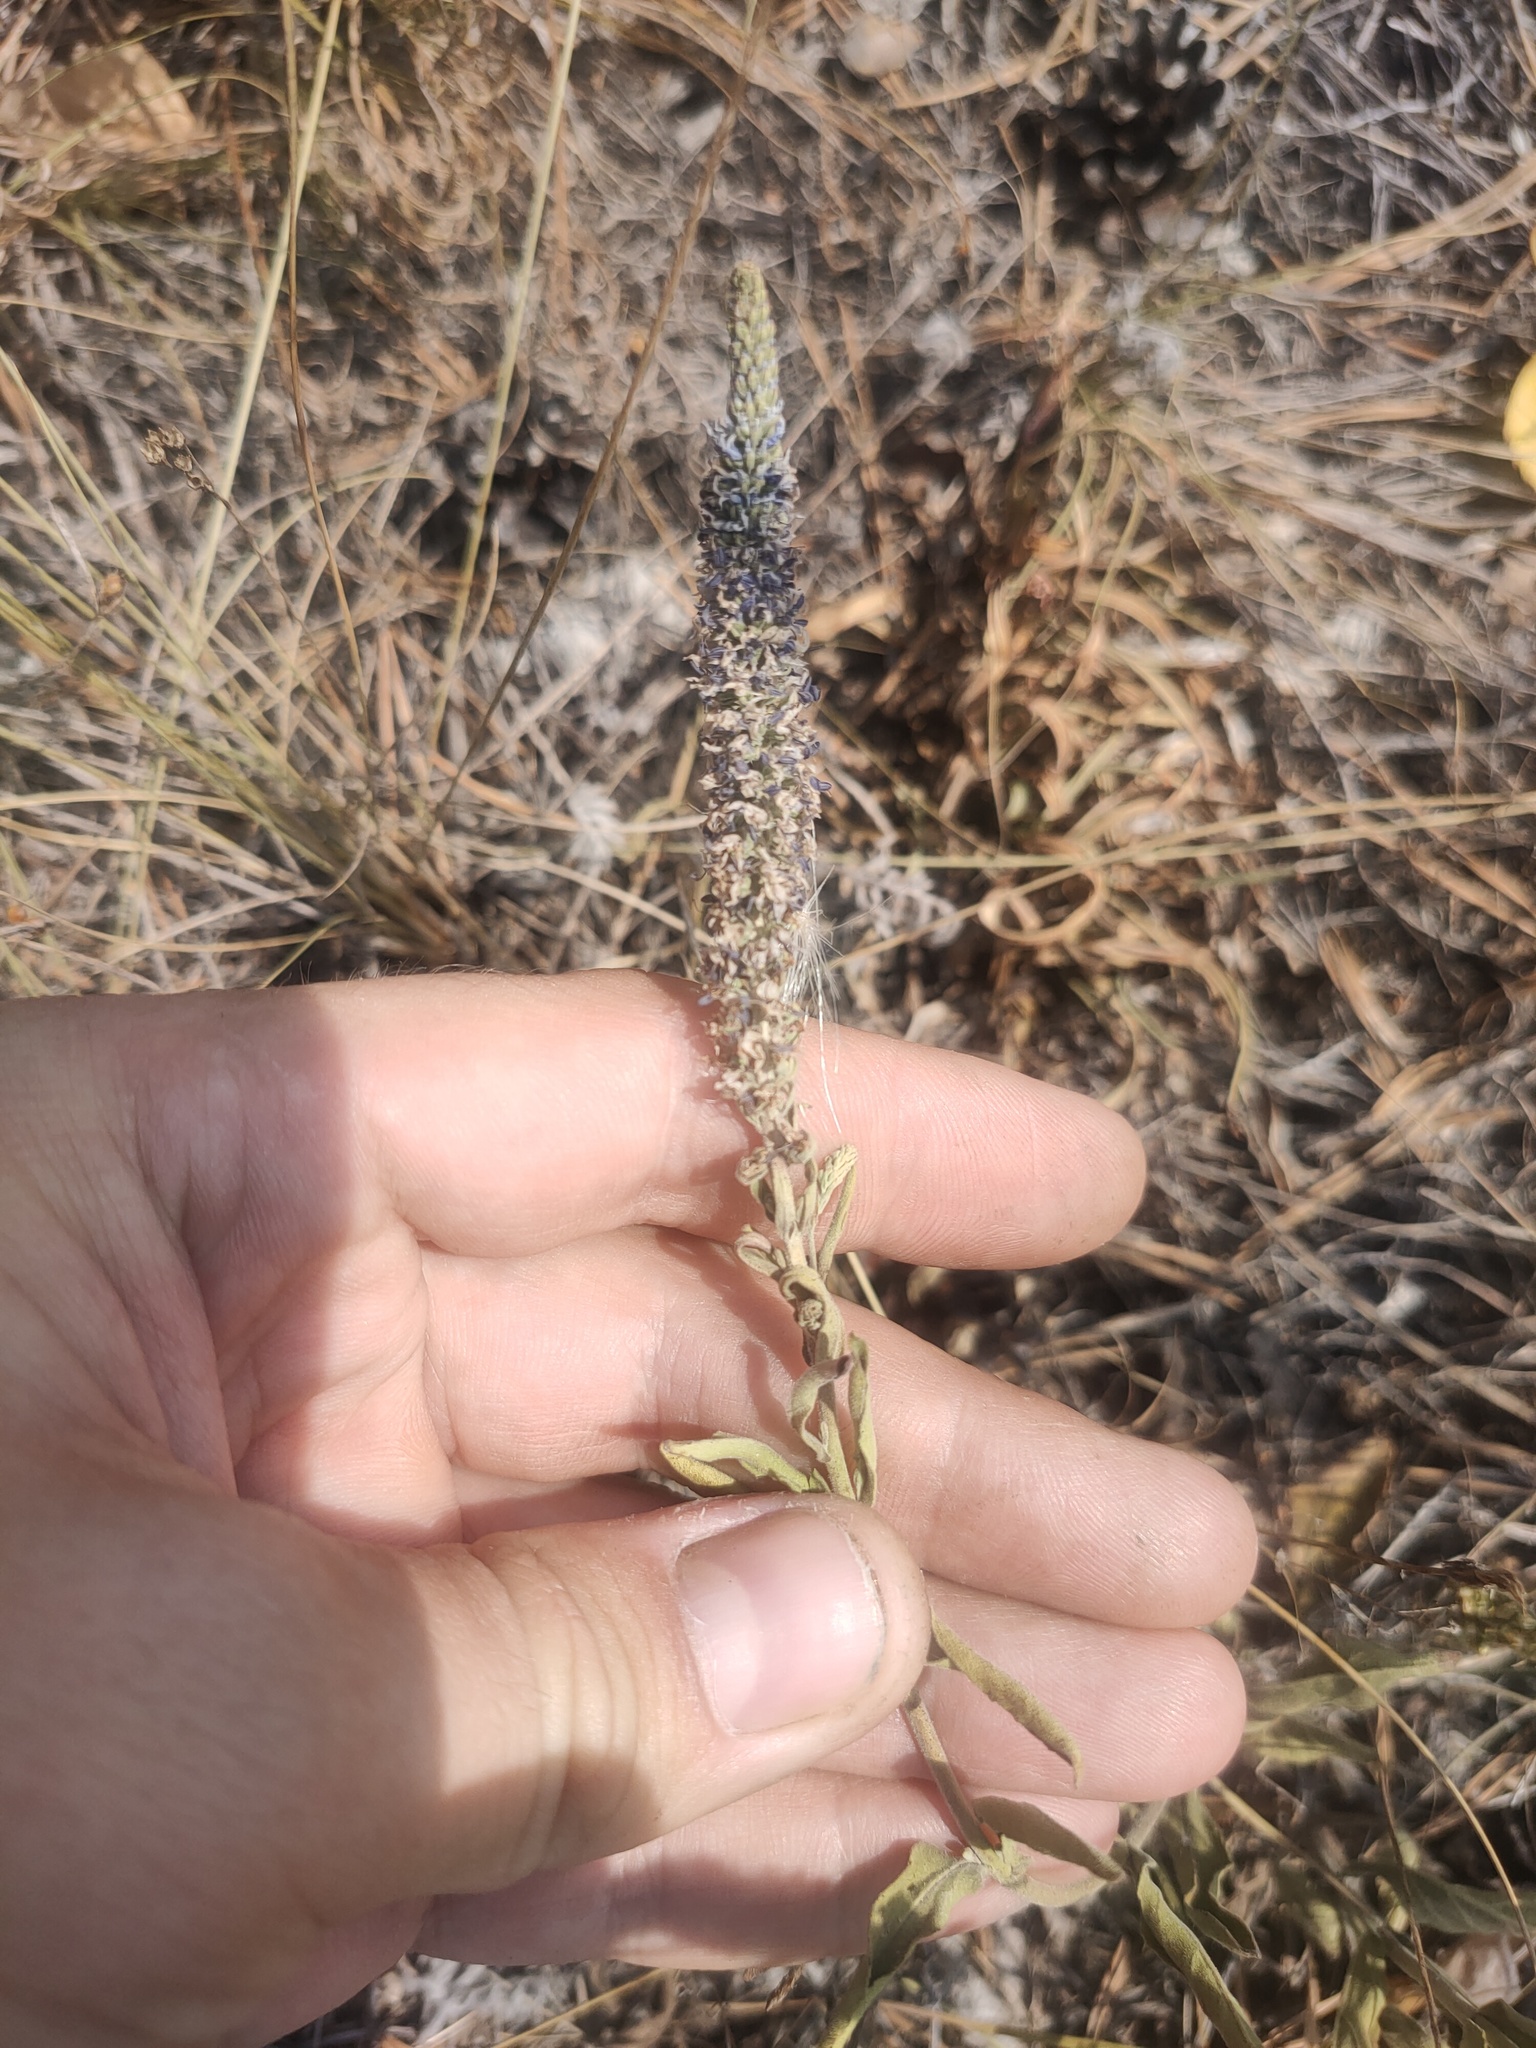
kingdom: Plantae
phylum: Tracheophyta
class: Magnoliopsida
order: Lamiales
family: Plantaginaceae
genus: Veronica
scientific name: Veronica spicata
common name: Spiked speedwell
